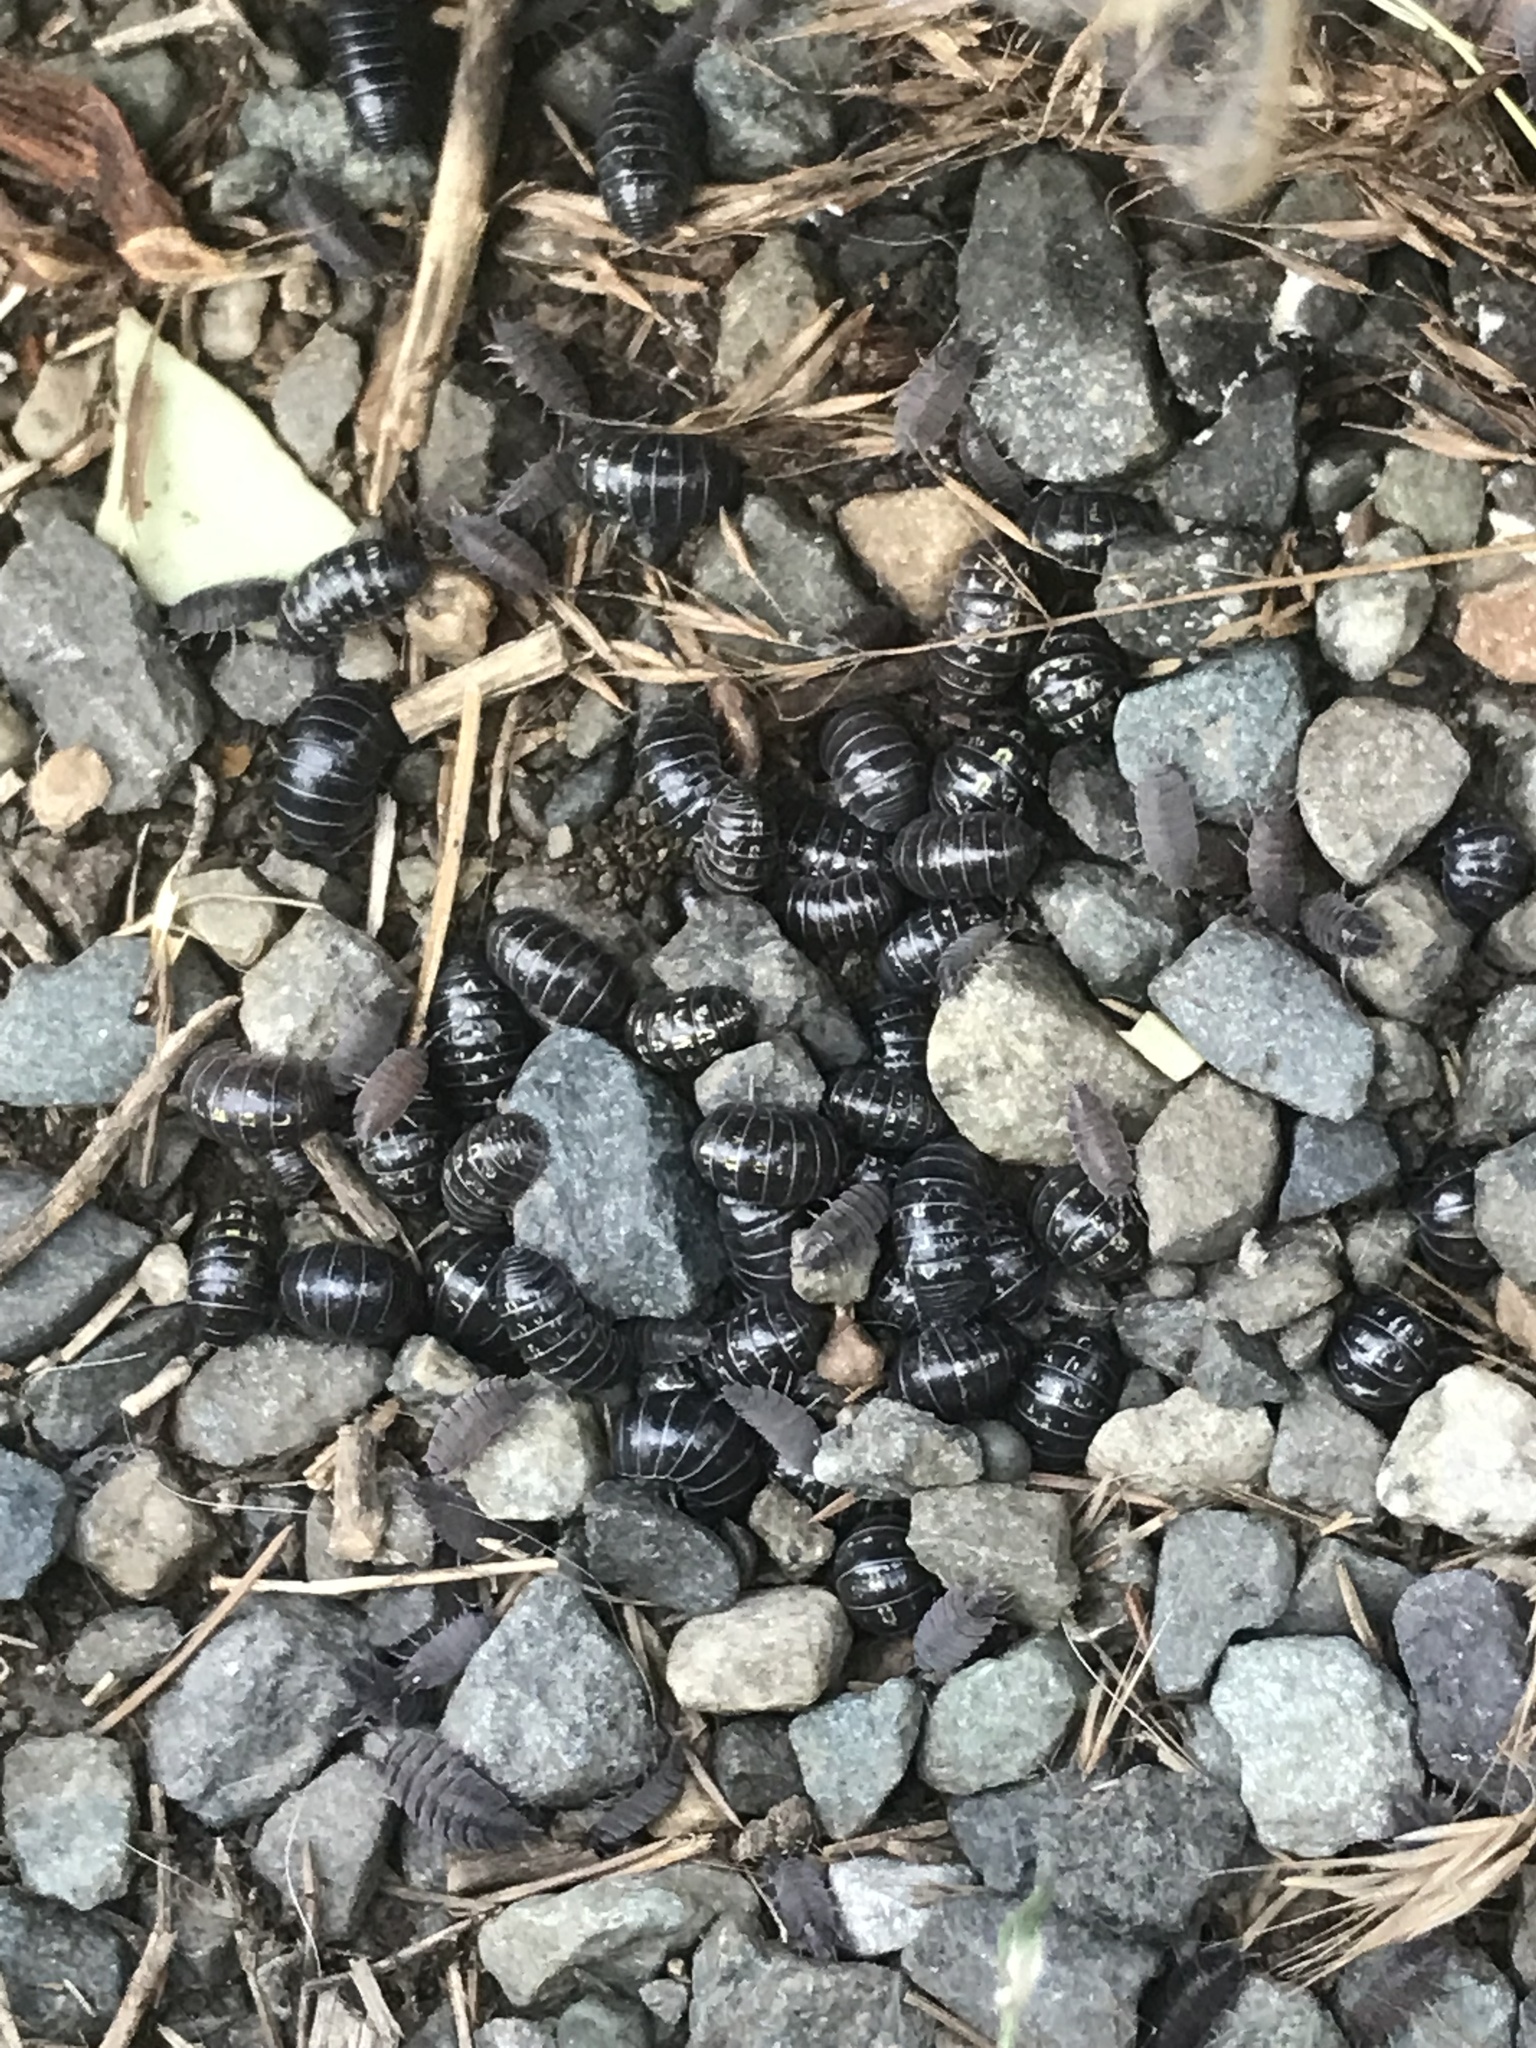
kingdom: Animalia
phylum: Arthropoda
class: Malacostraca
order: Isopoda
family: Armadillidiidae
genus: Armadillidium
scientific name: Armadillidium vulgare
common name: Common pill woodlouse
